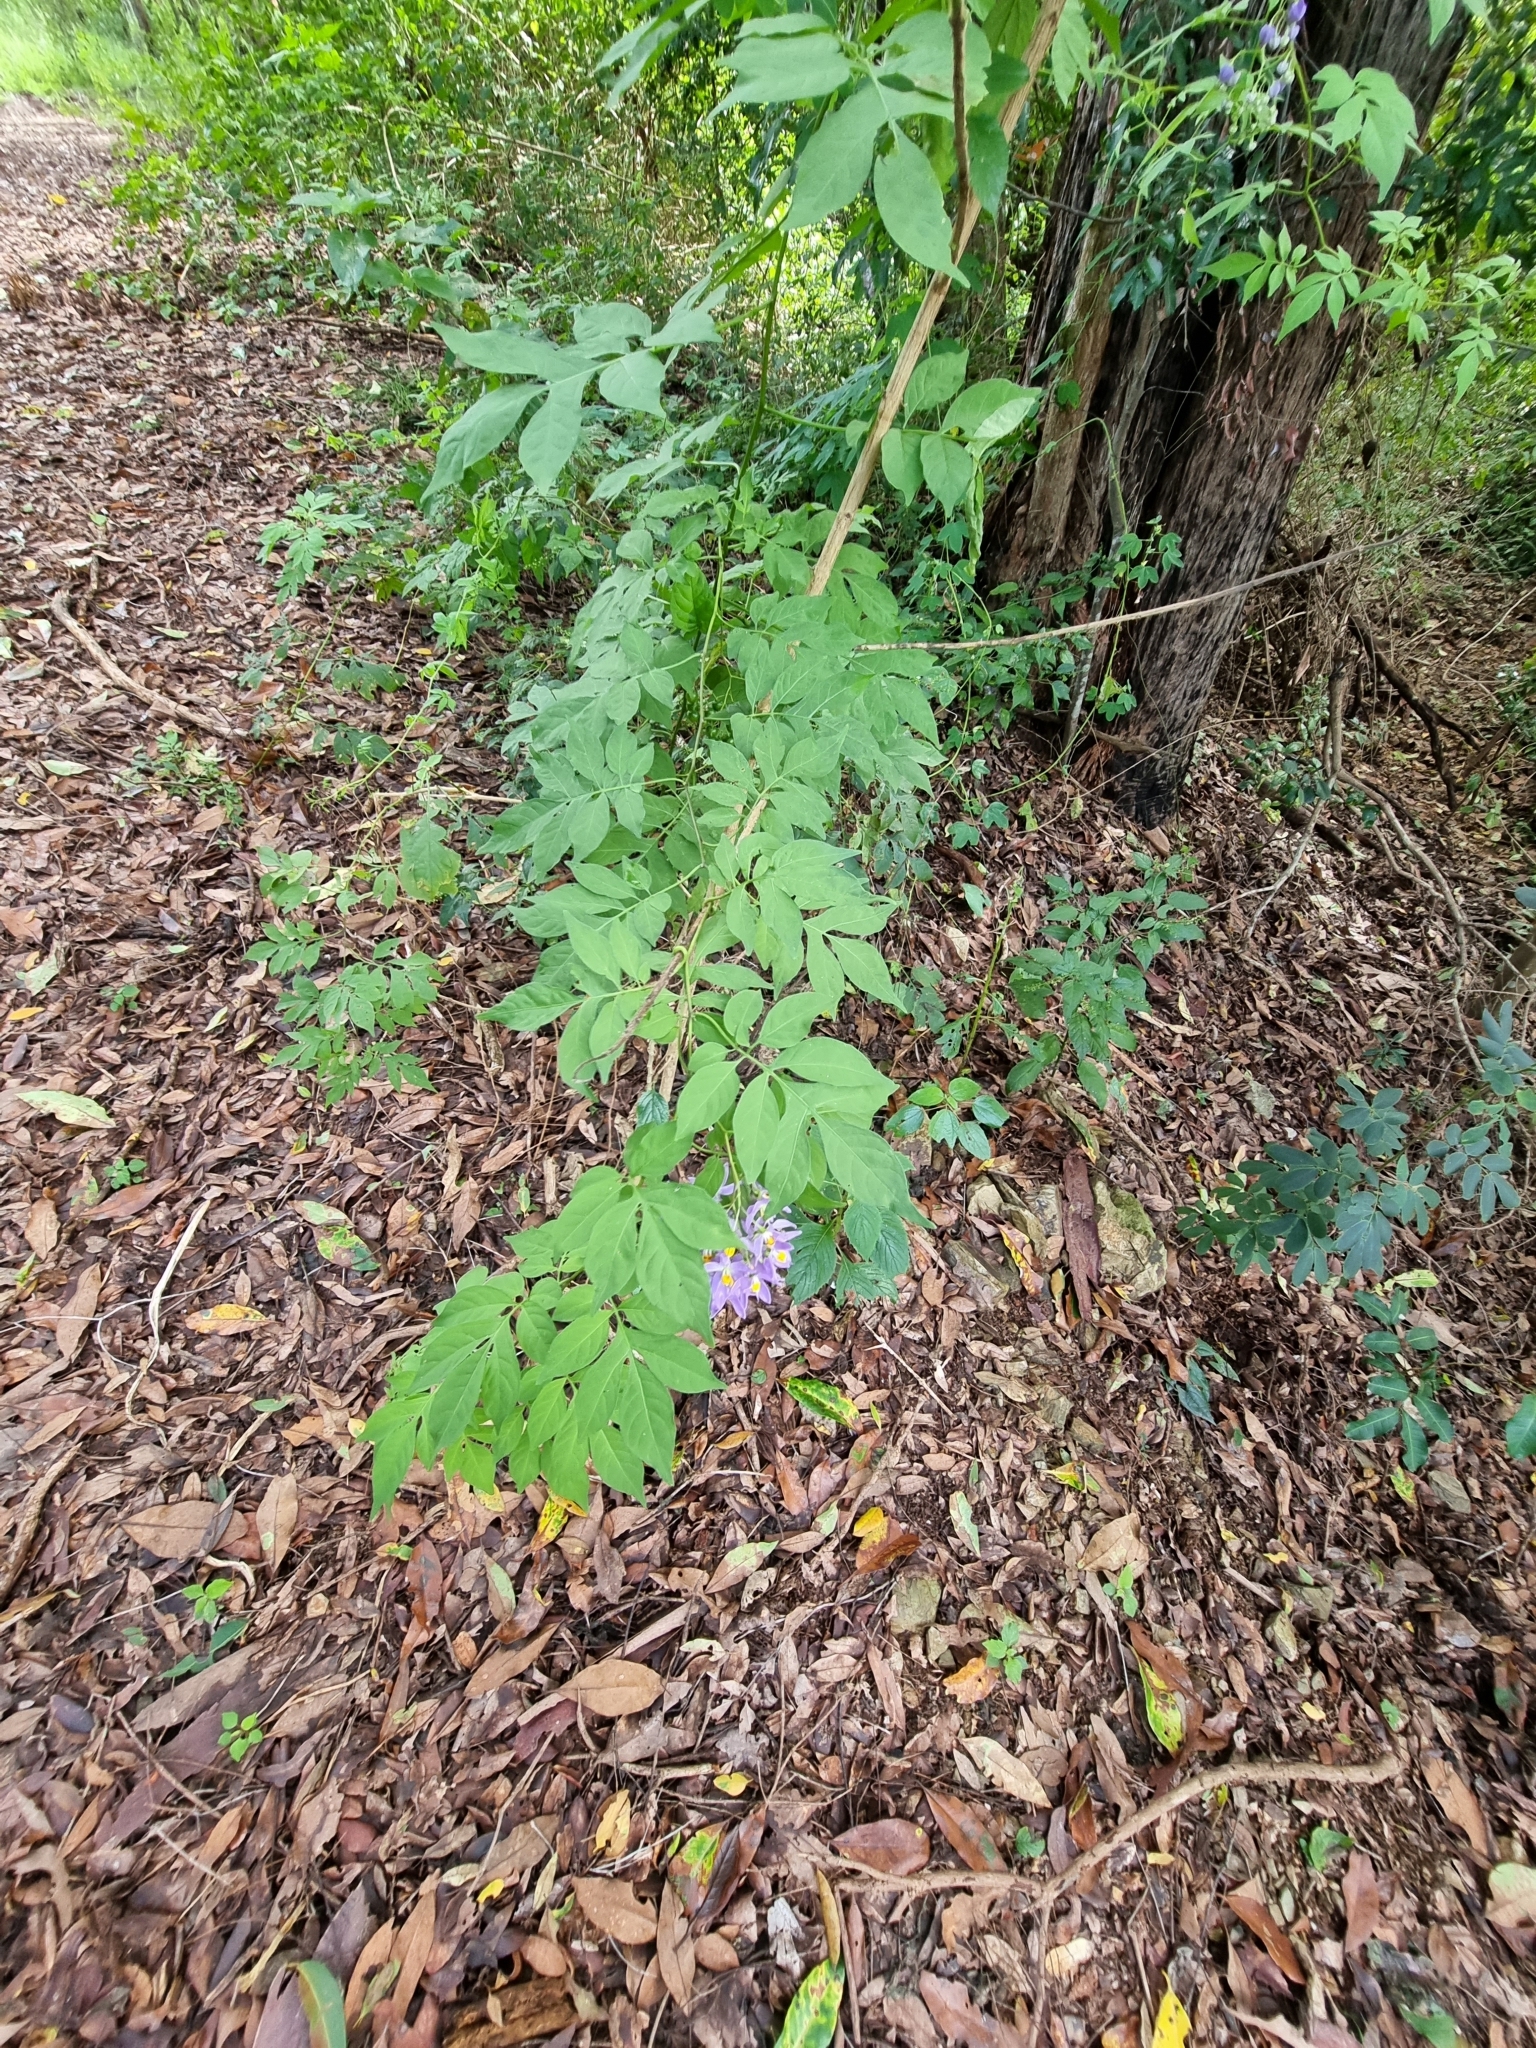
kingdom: Plantae
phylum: Tracheophyta
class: Magnoliopsida
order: Solanales
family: Solanaceae
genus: Solanum
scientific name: Solanum seaforthianum
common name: Brazilian nightshade
